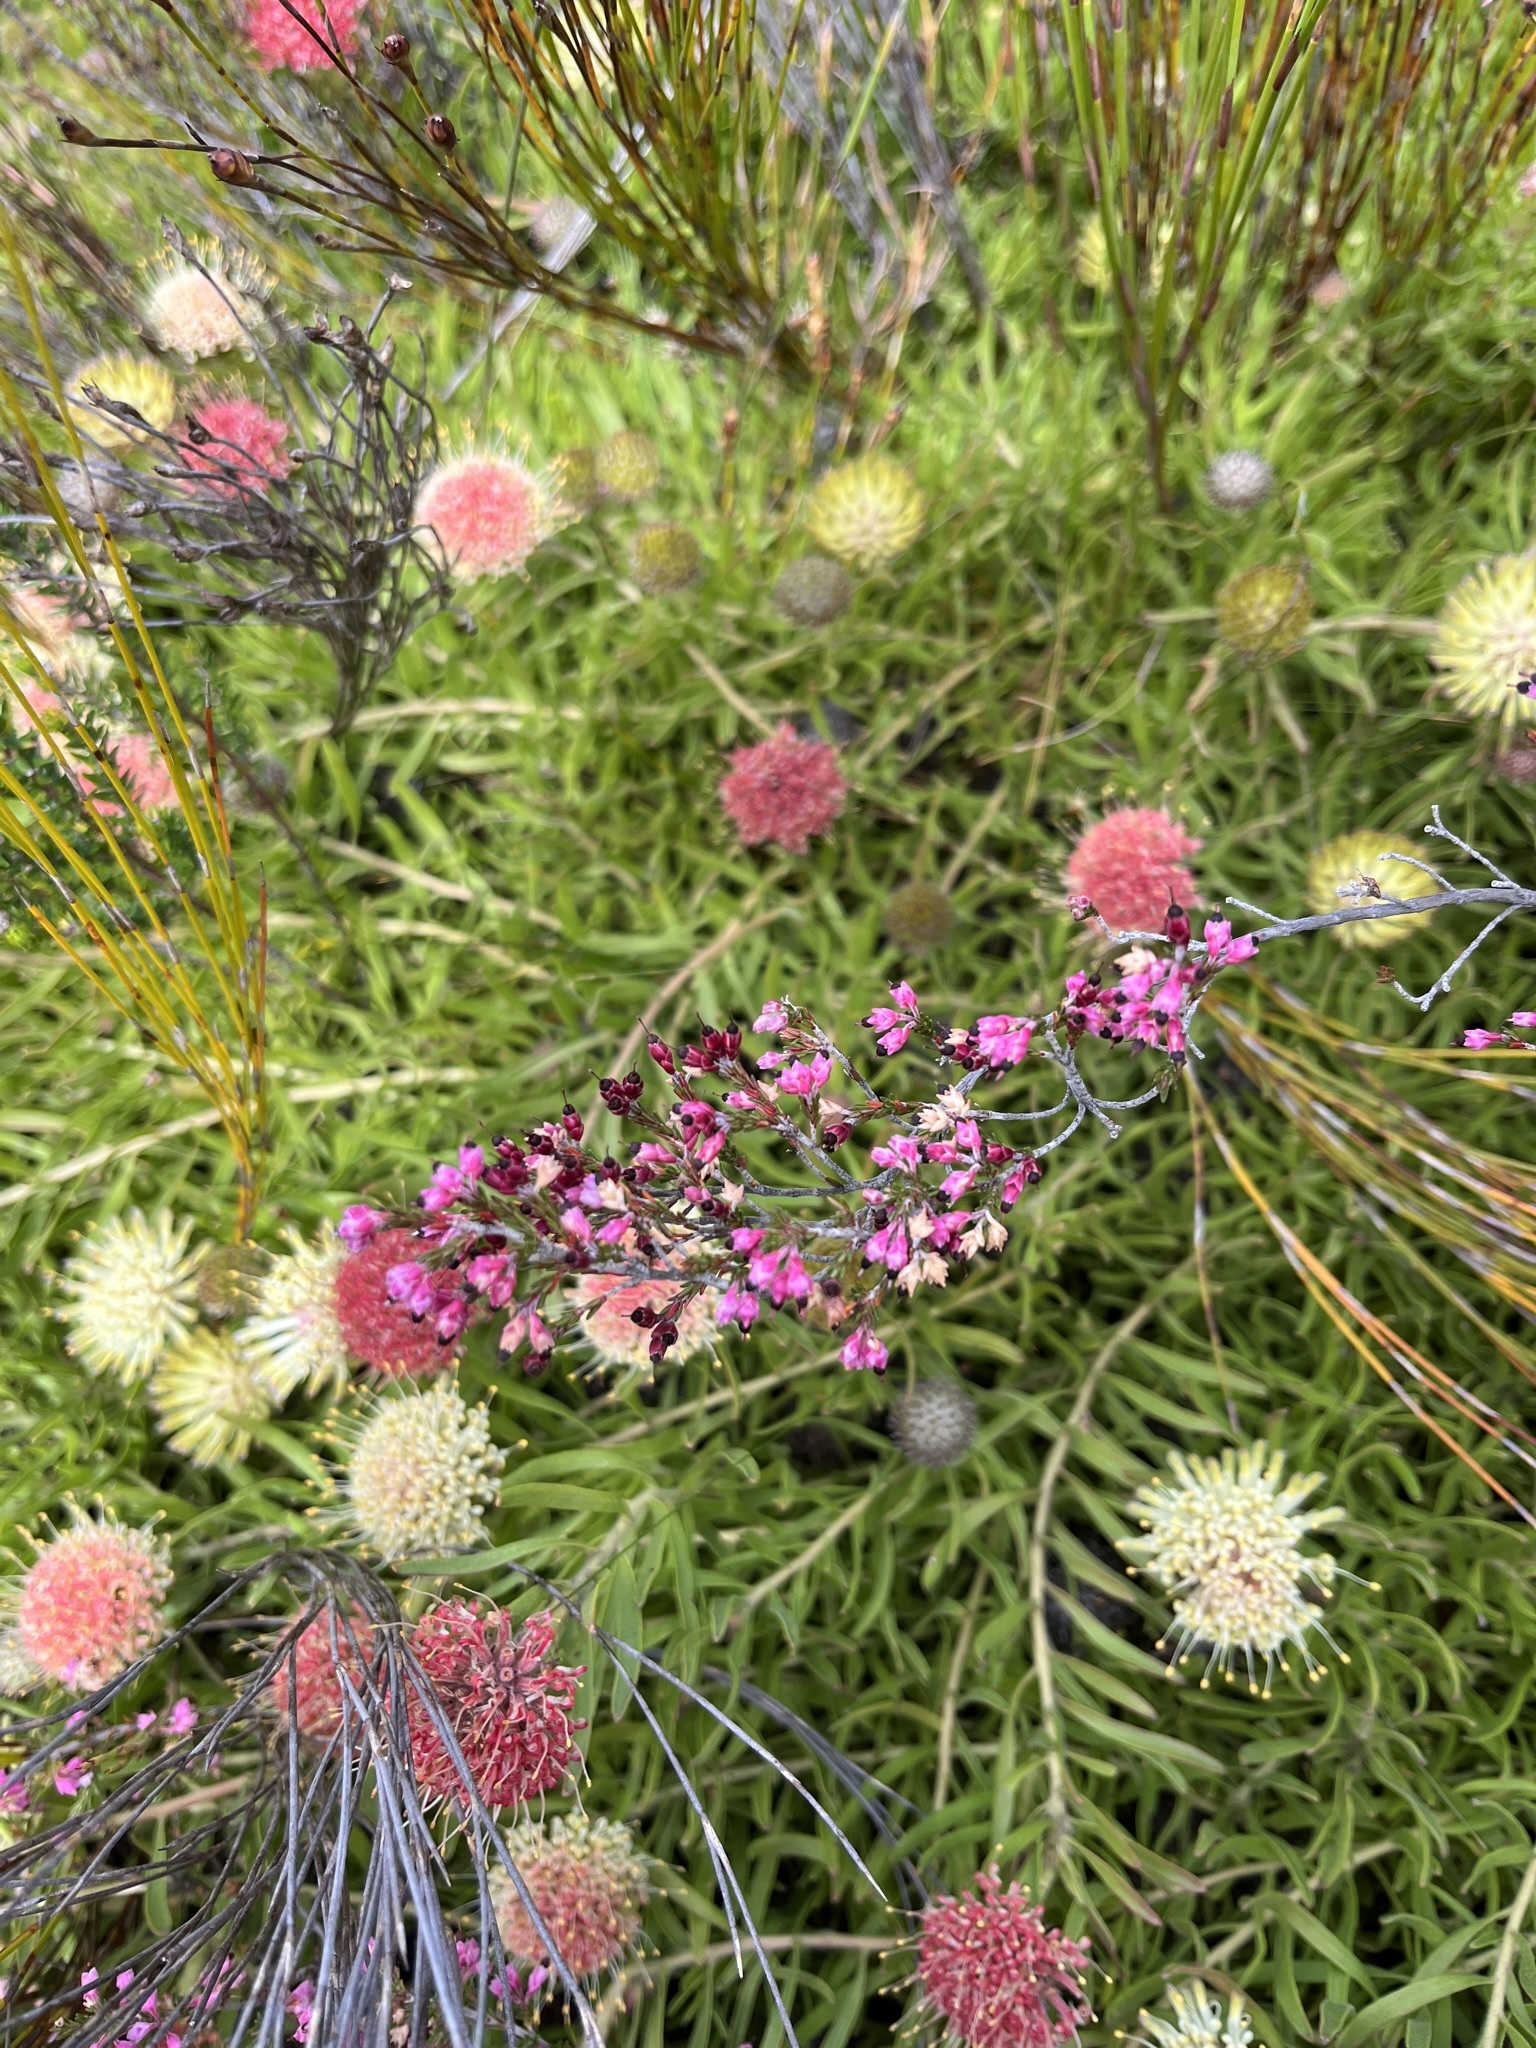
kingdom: Plantae
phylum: Tracheophyta
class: Magnoliopsida
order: Proteales
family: Proteaceae
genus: Leucospermum
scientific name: Leucospermum pedunculatum
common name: White-trailing pincushion
